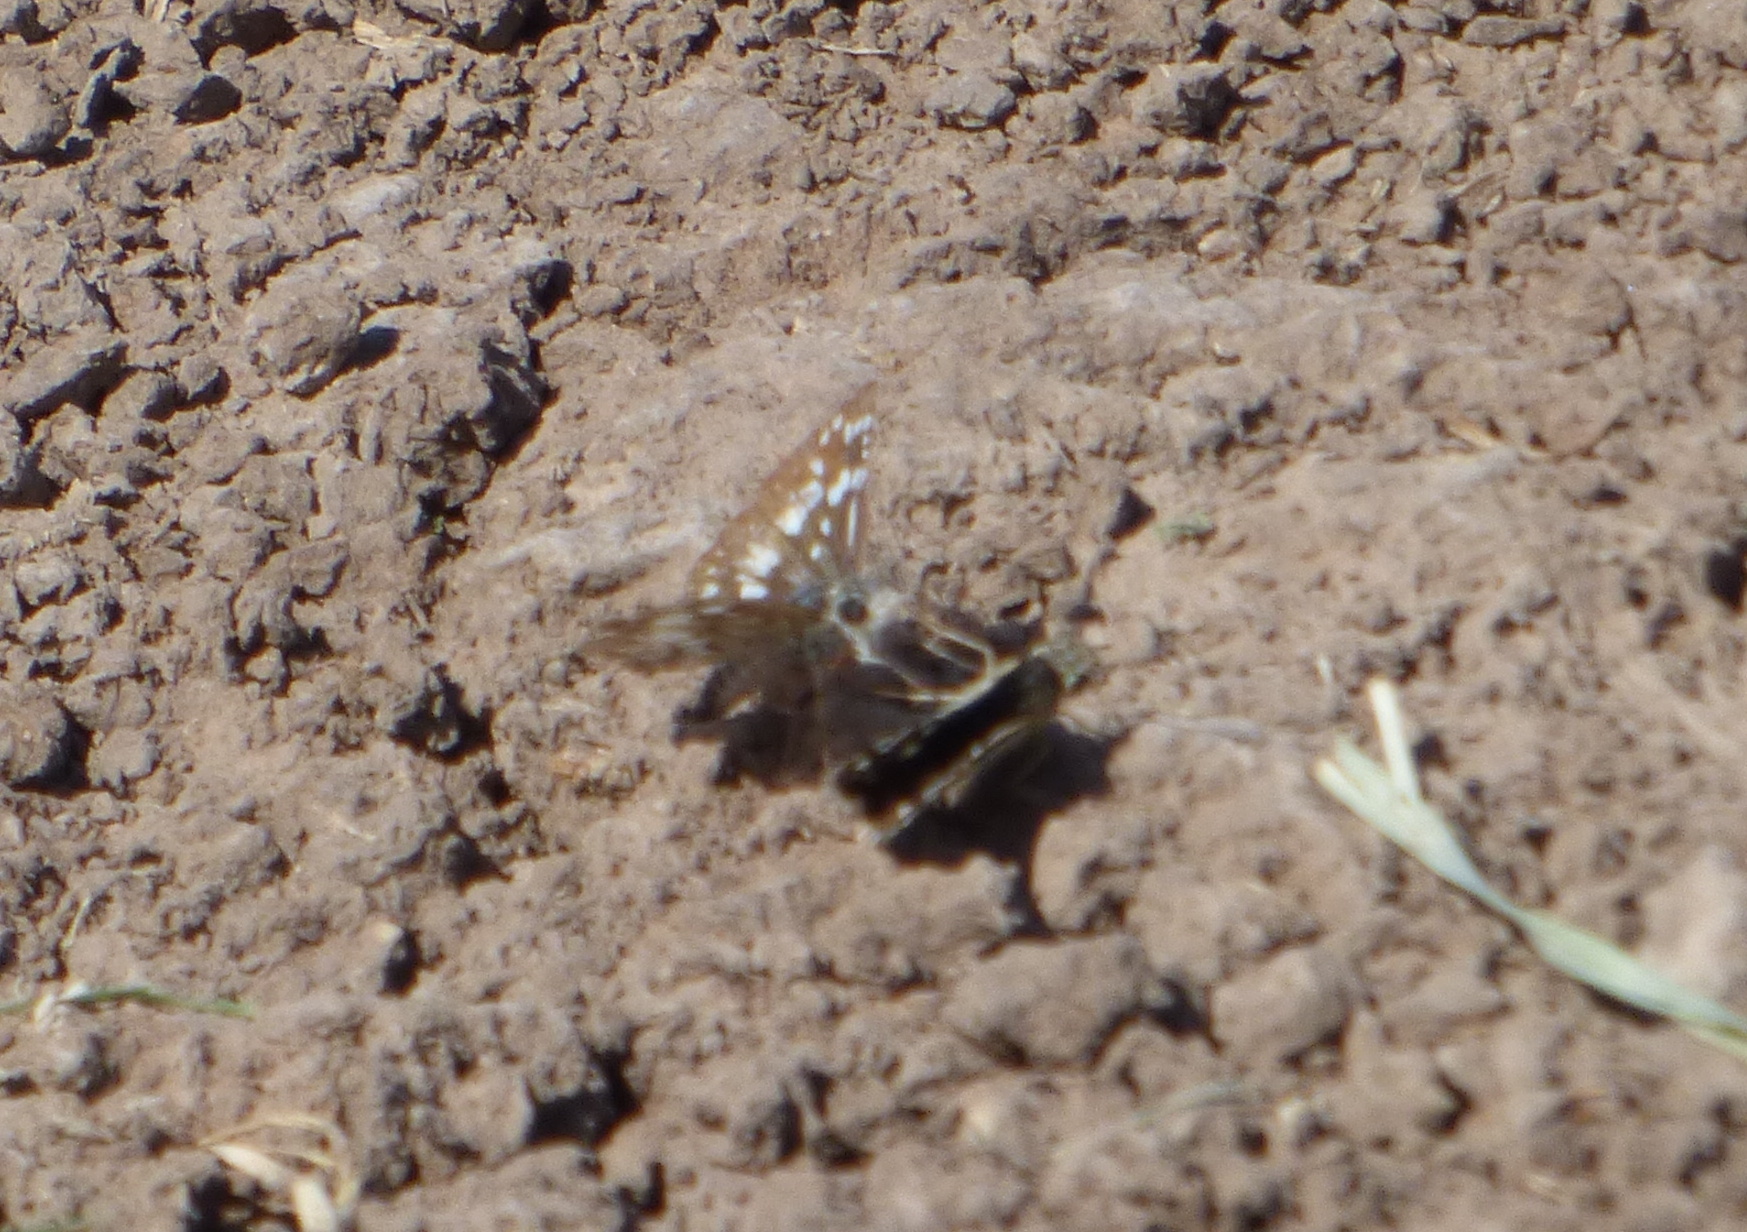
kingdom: Animalia
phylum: Arthropoda
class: Insecta
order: Lepidoptera
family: Hesperiidae
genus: Burnsius
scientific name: Burnsius orcynoides
